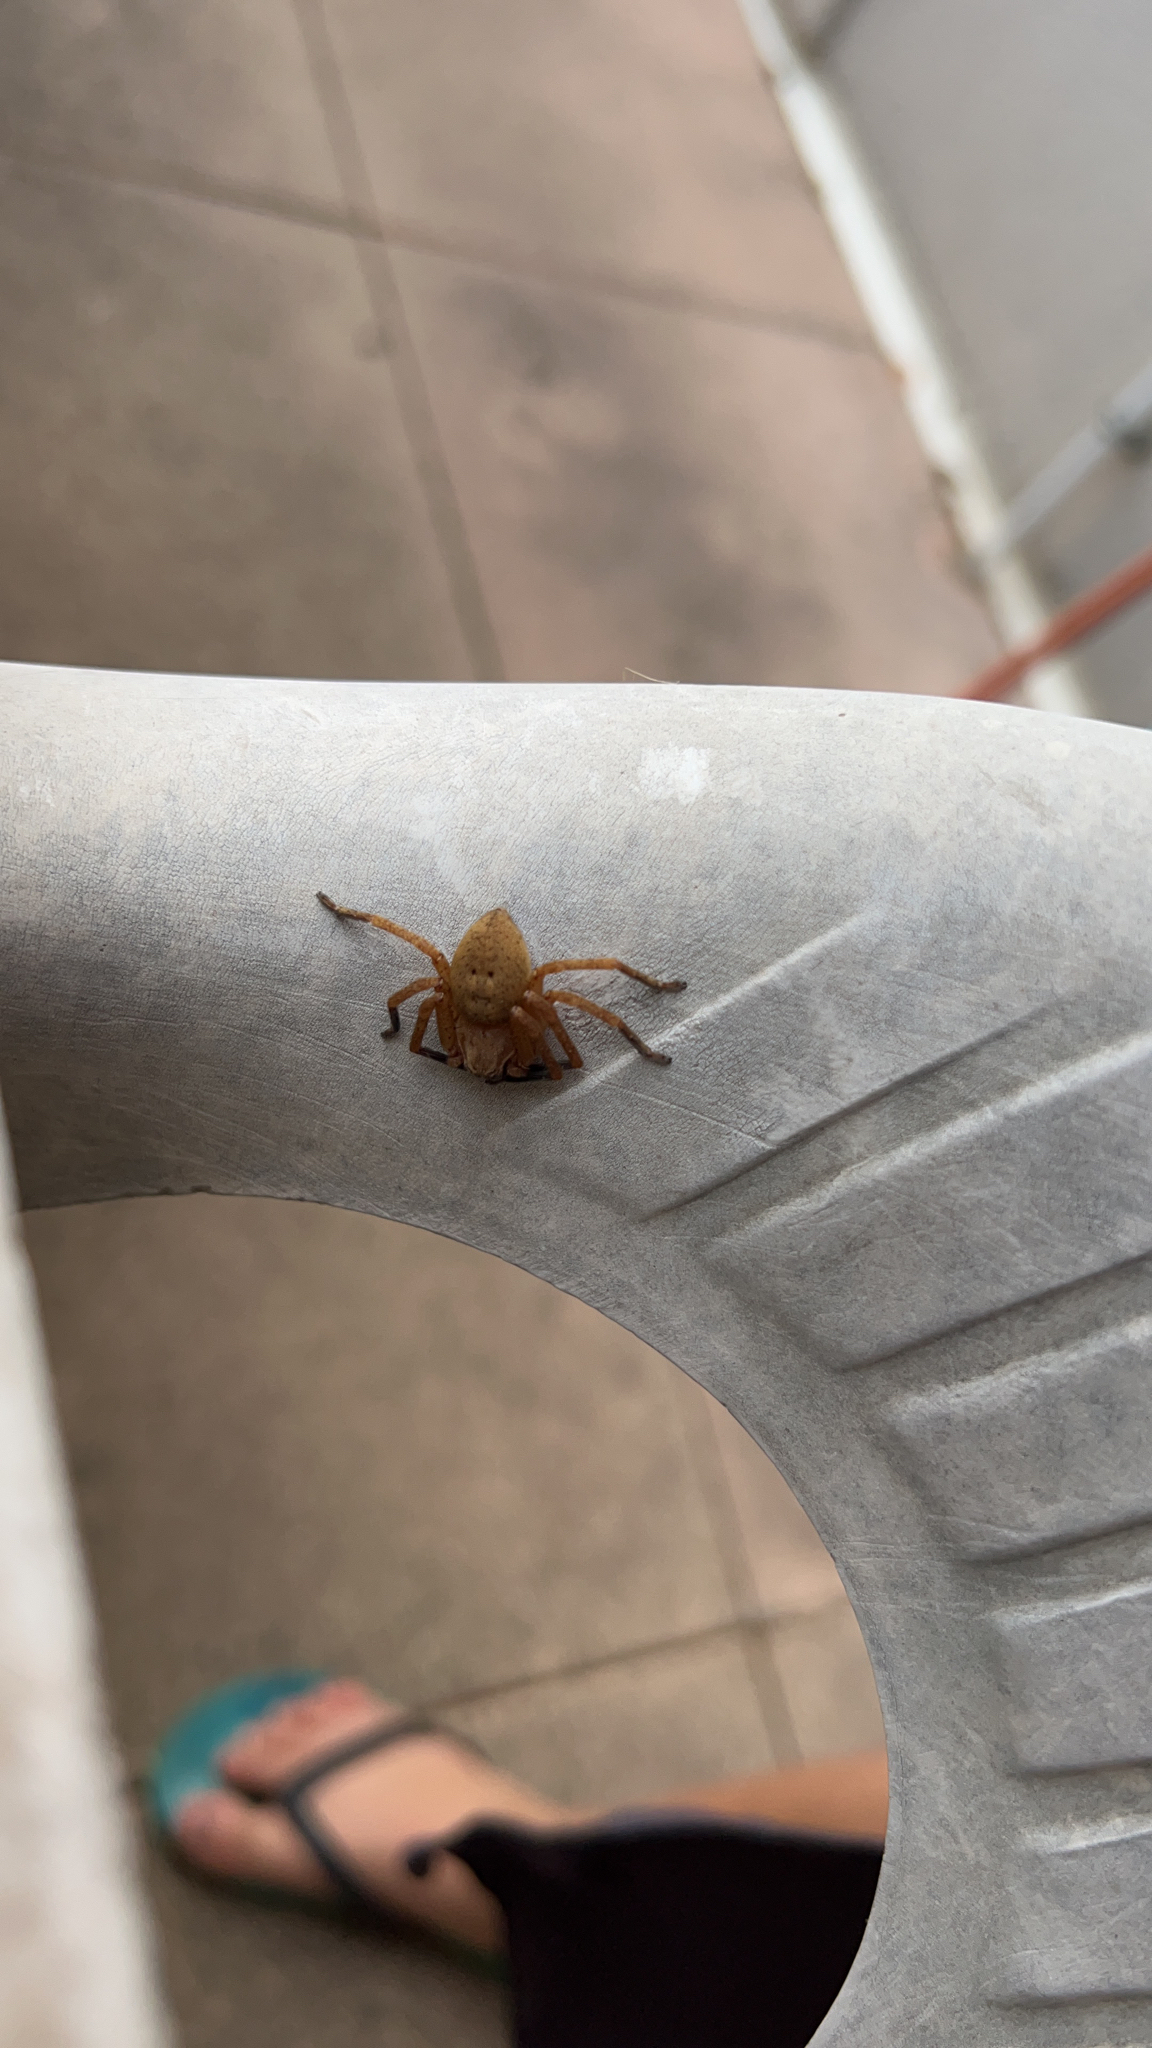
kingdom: Animalia
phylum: Arthropoda
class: Arachnida
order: Araneae
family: Sparassidae
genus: Olios
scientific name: Olios argelasius
